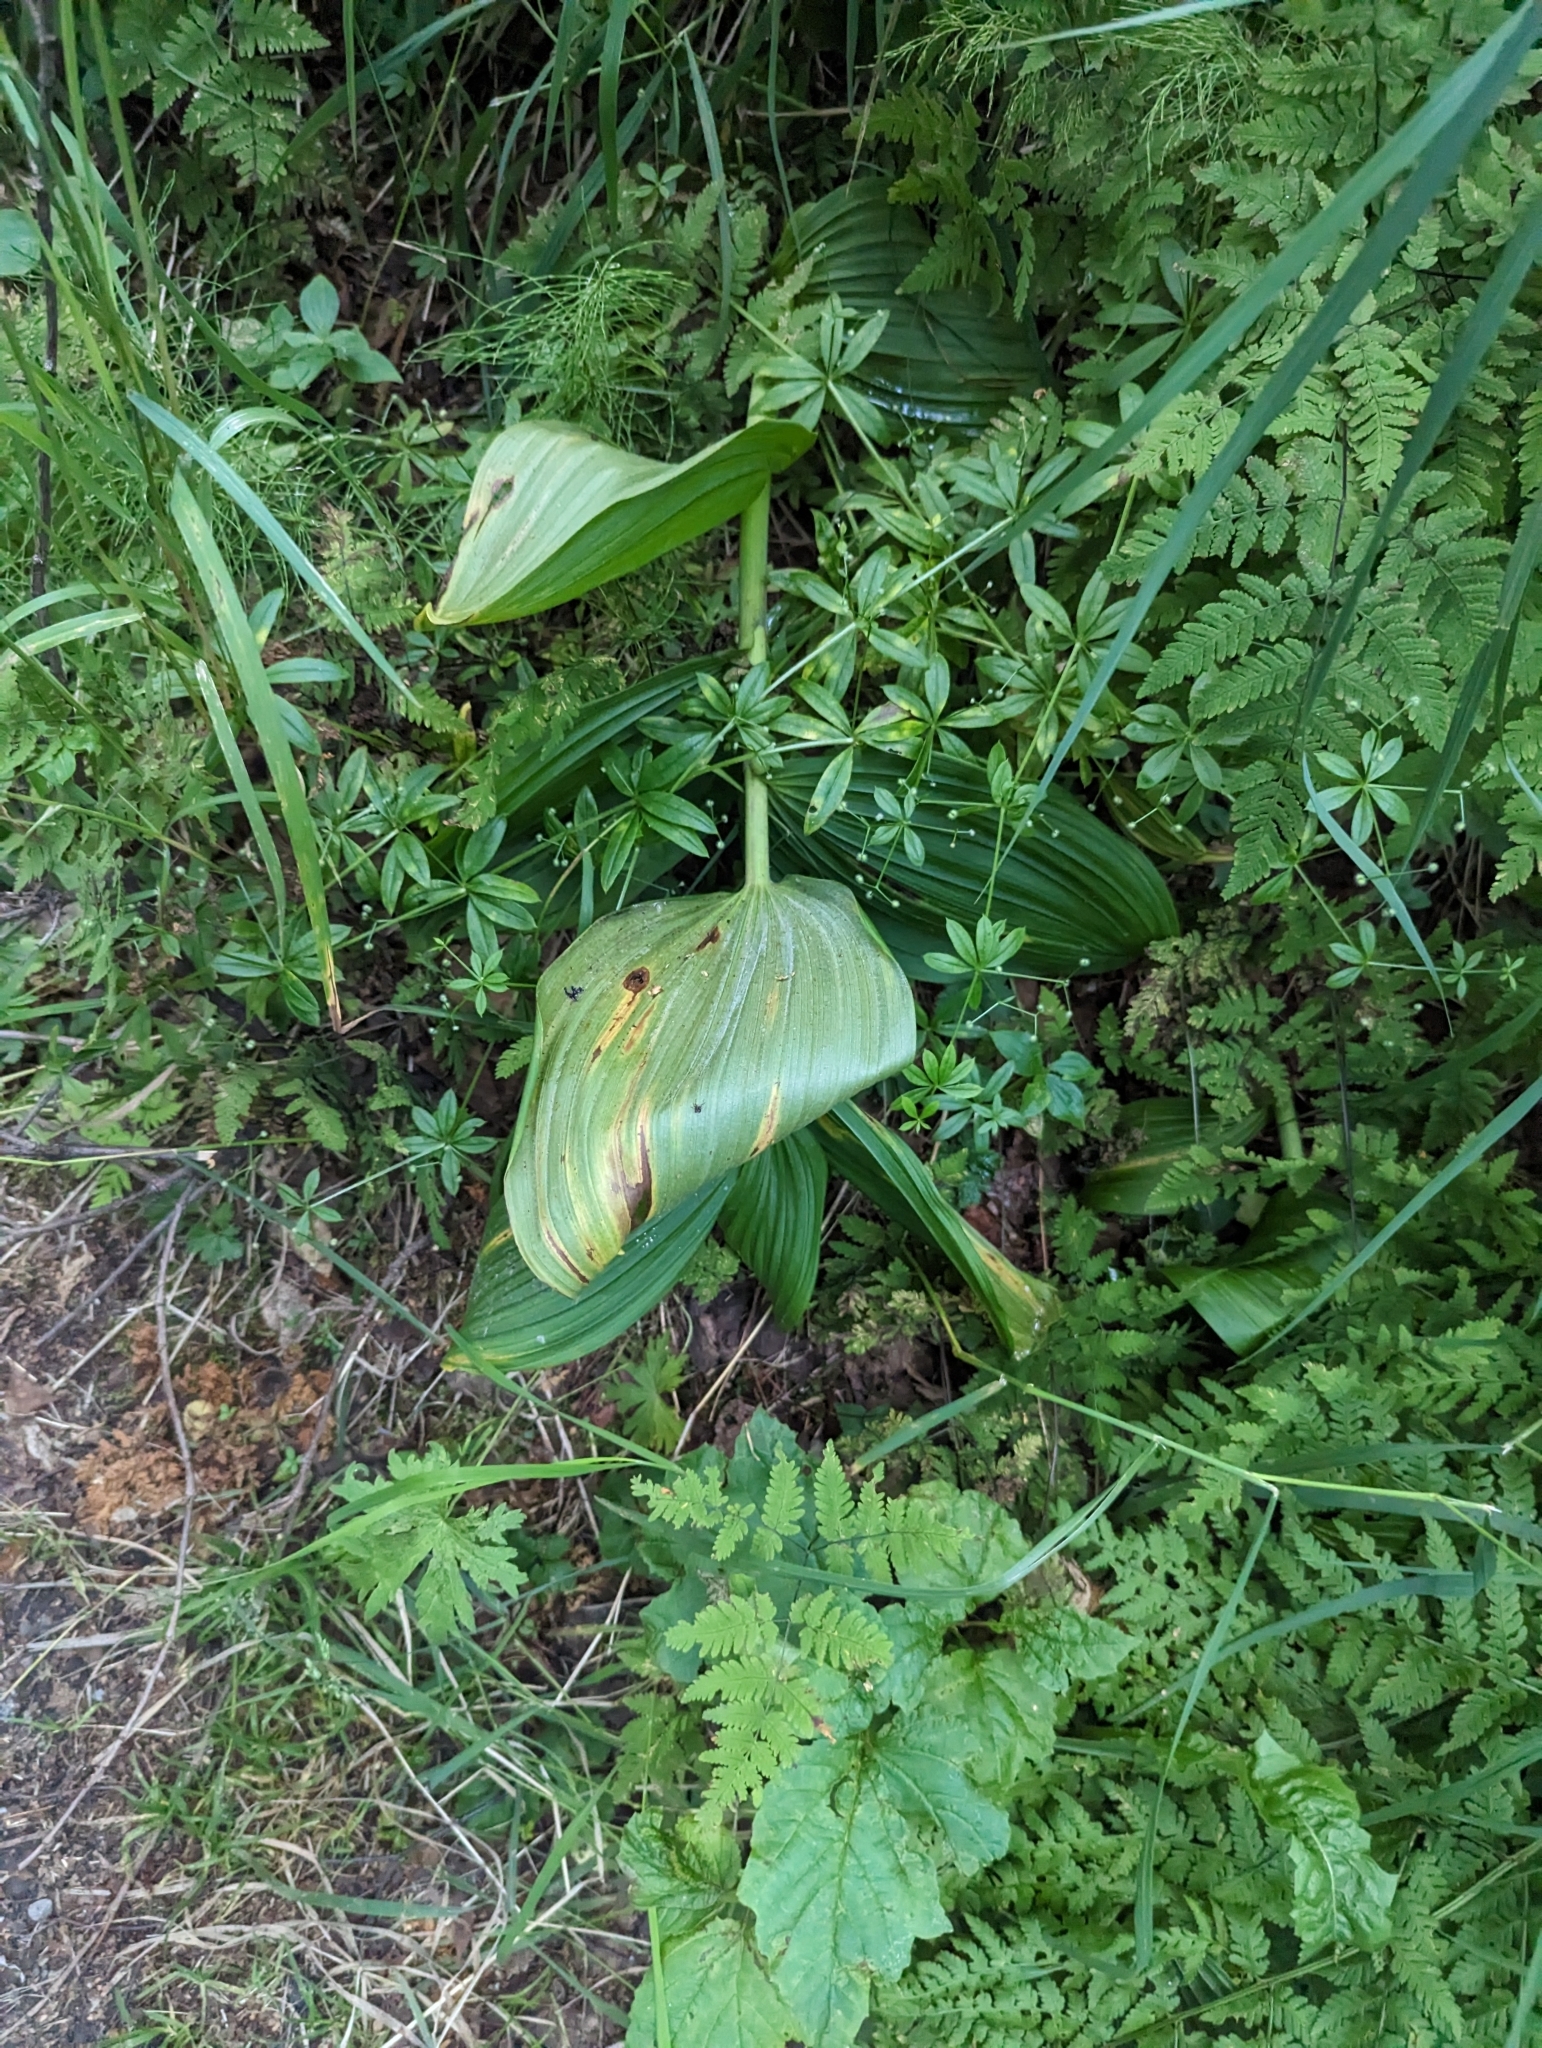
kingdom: Plantae
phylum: Tracheophyta
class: Liliopsida
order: Liliales
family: Melanthiaceae
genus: Veratrum
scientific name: Veratrum viride
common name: American false hellebore
